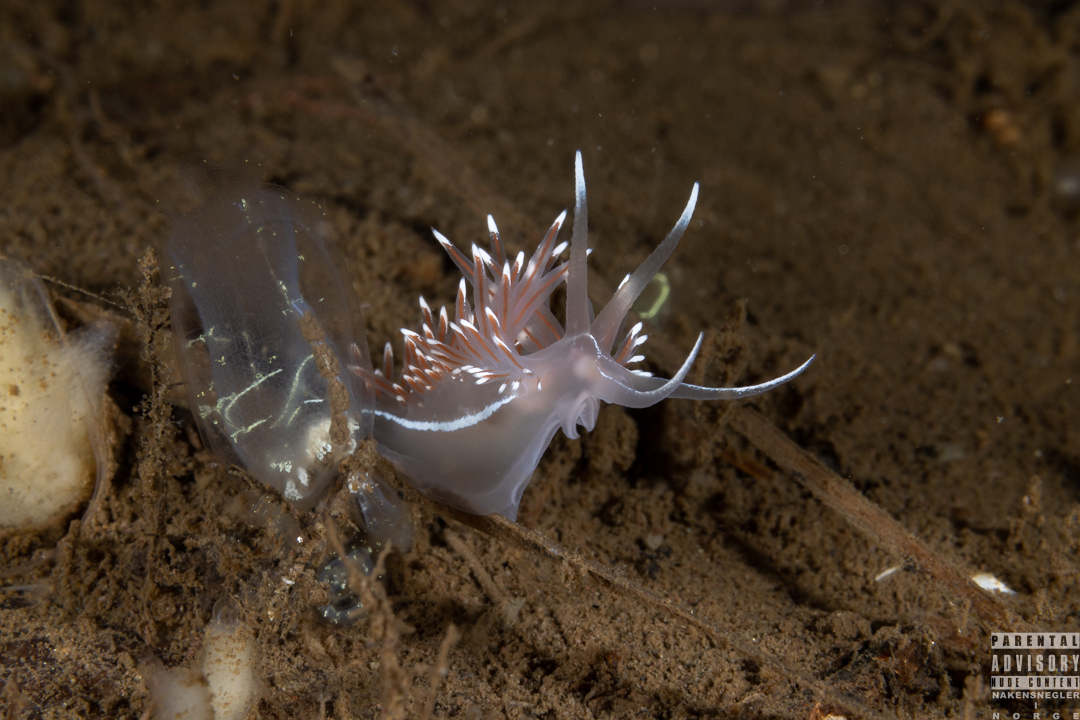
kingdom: Animalia
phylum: Mollusca
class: Gastropoda
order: Nudibranchia
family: Coryphellidae
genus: Coryphella
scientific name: Coryphella lineata
